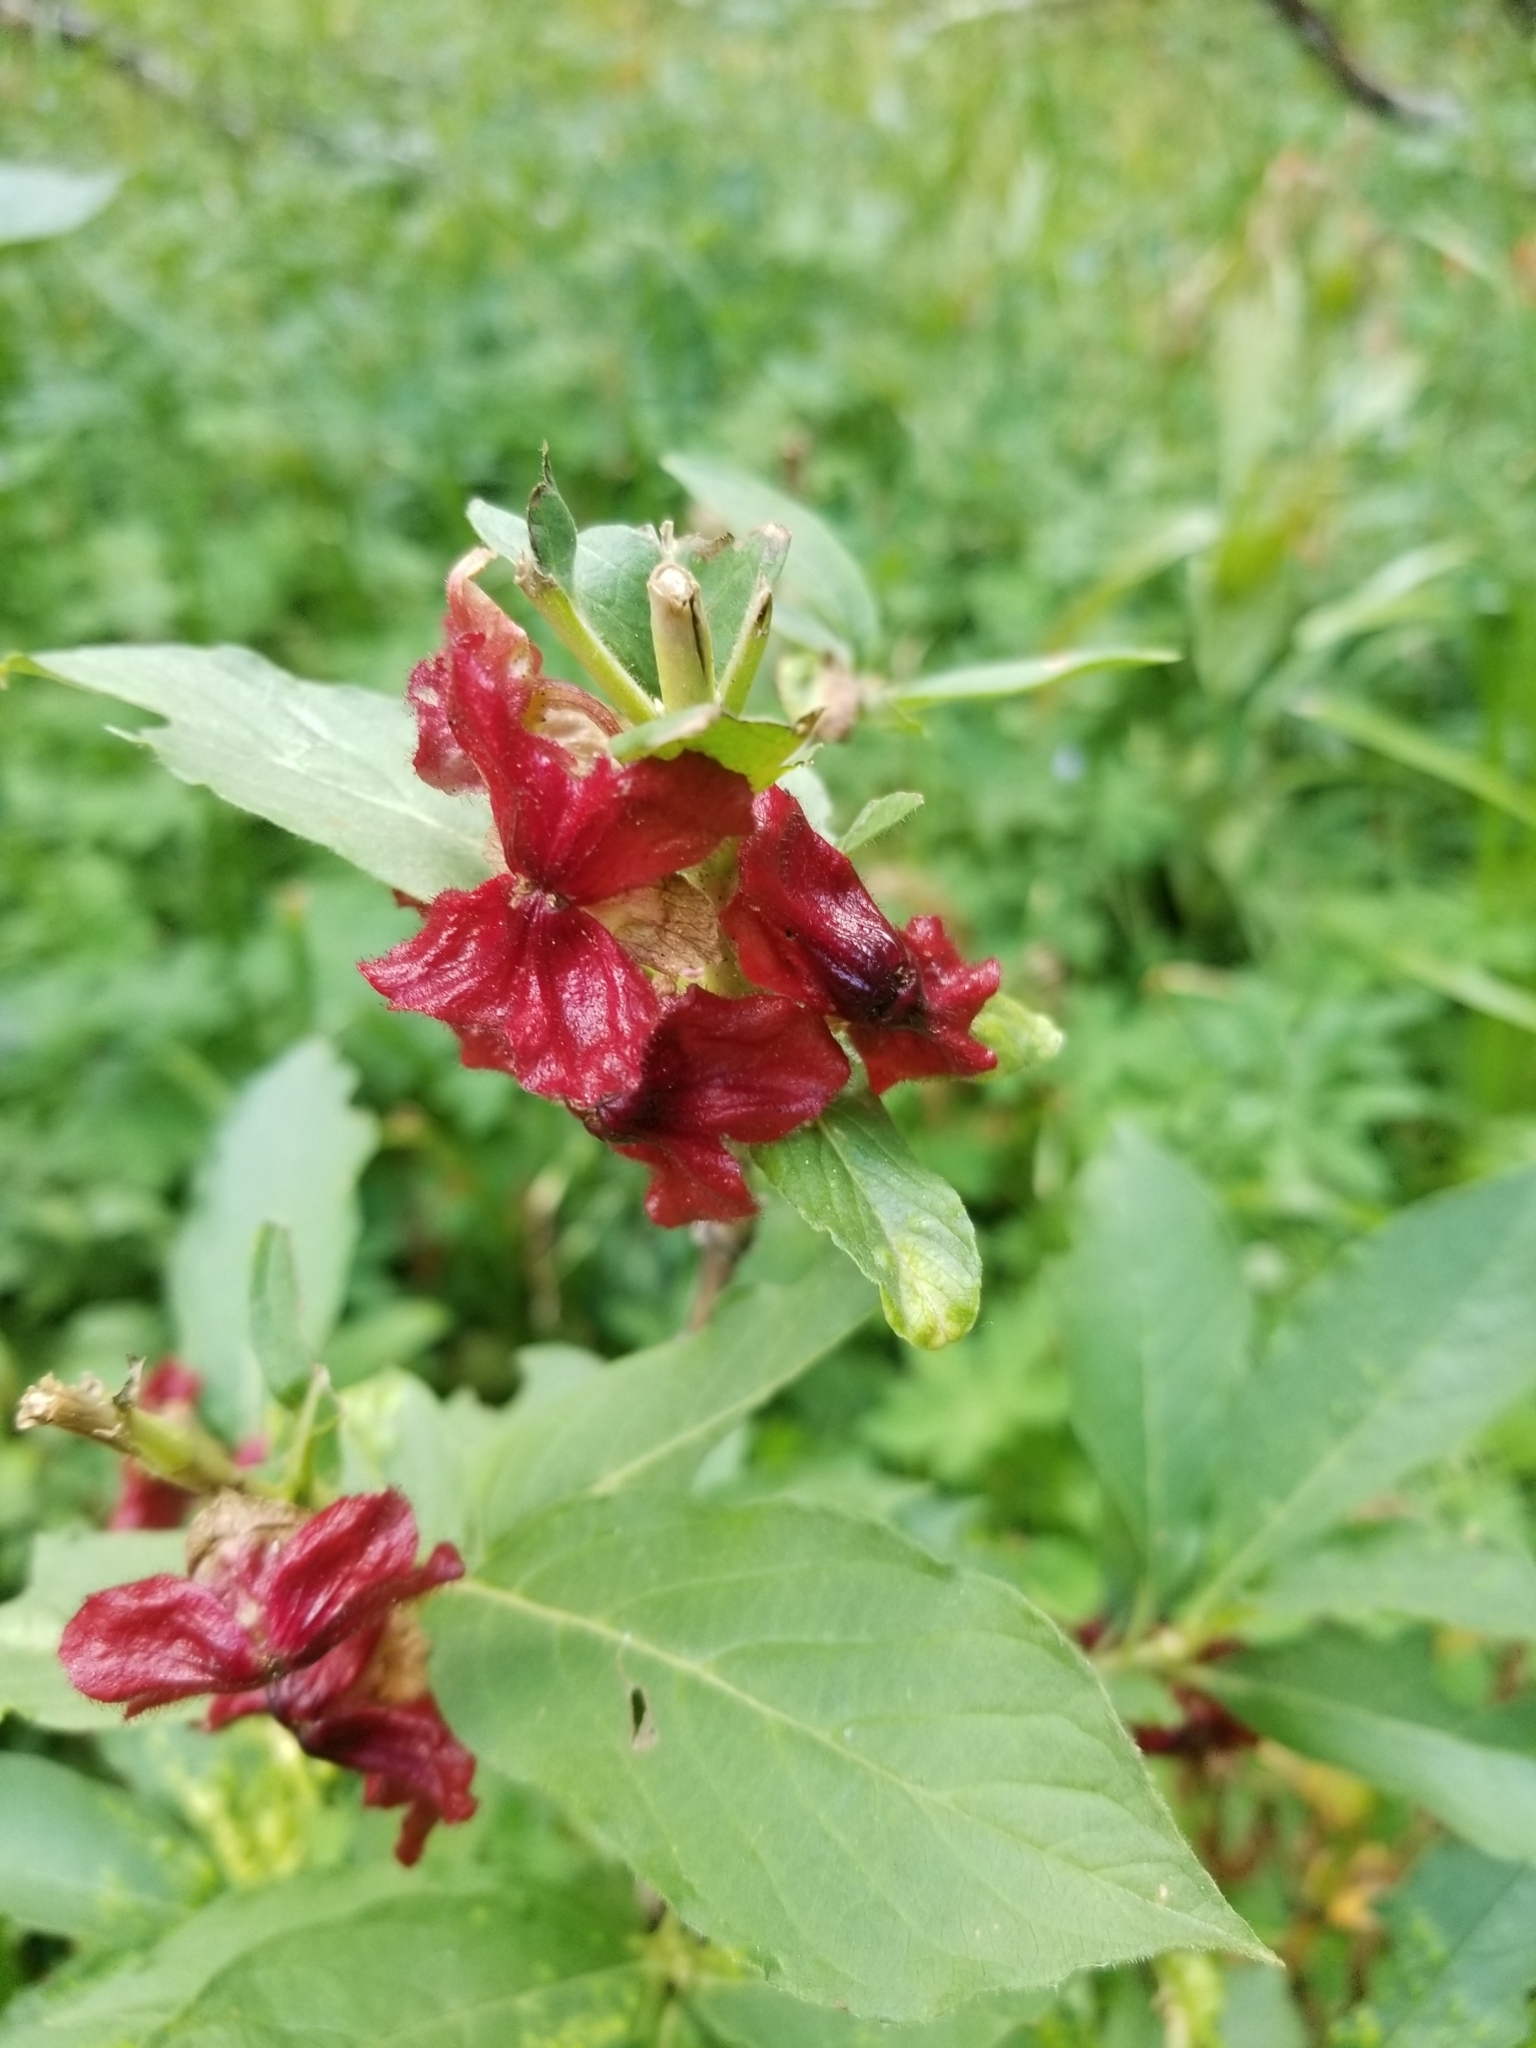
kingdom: Plantae
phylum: Tracheophyta
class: Magnoliopsida
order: Dipsacales
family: Caprifoliaceae
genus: Lonicera
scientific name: Lonicera involucrata
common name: Californian honeysuckle
